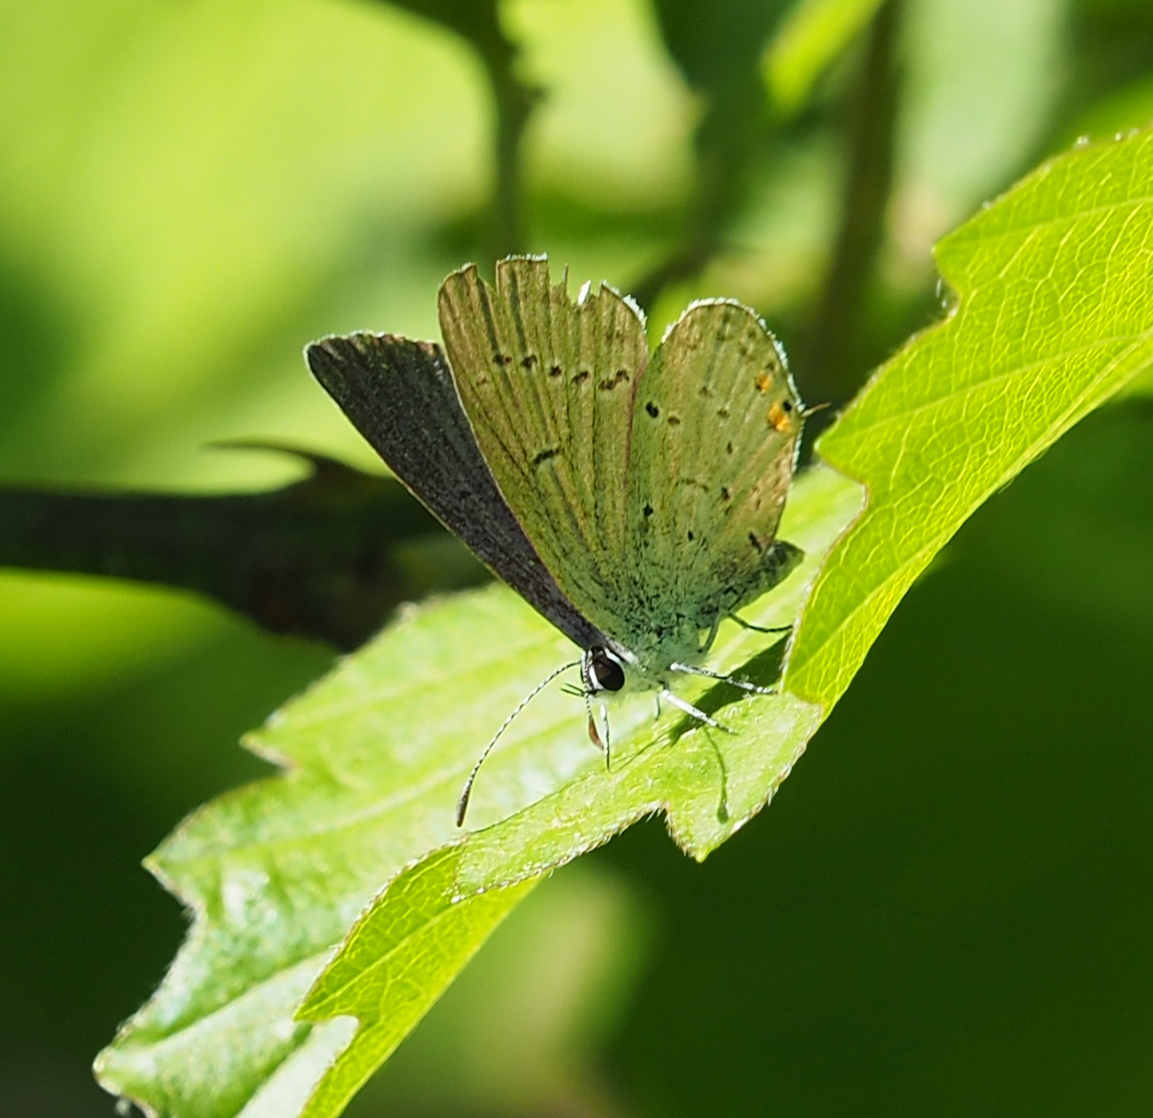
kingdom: Animalia
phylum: Arthropoda
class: Insecta
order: Lepidoptera
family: Lycaenidae
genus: Elkalyce
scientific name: Elkalyce comyntas
